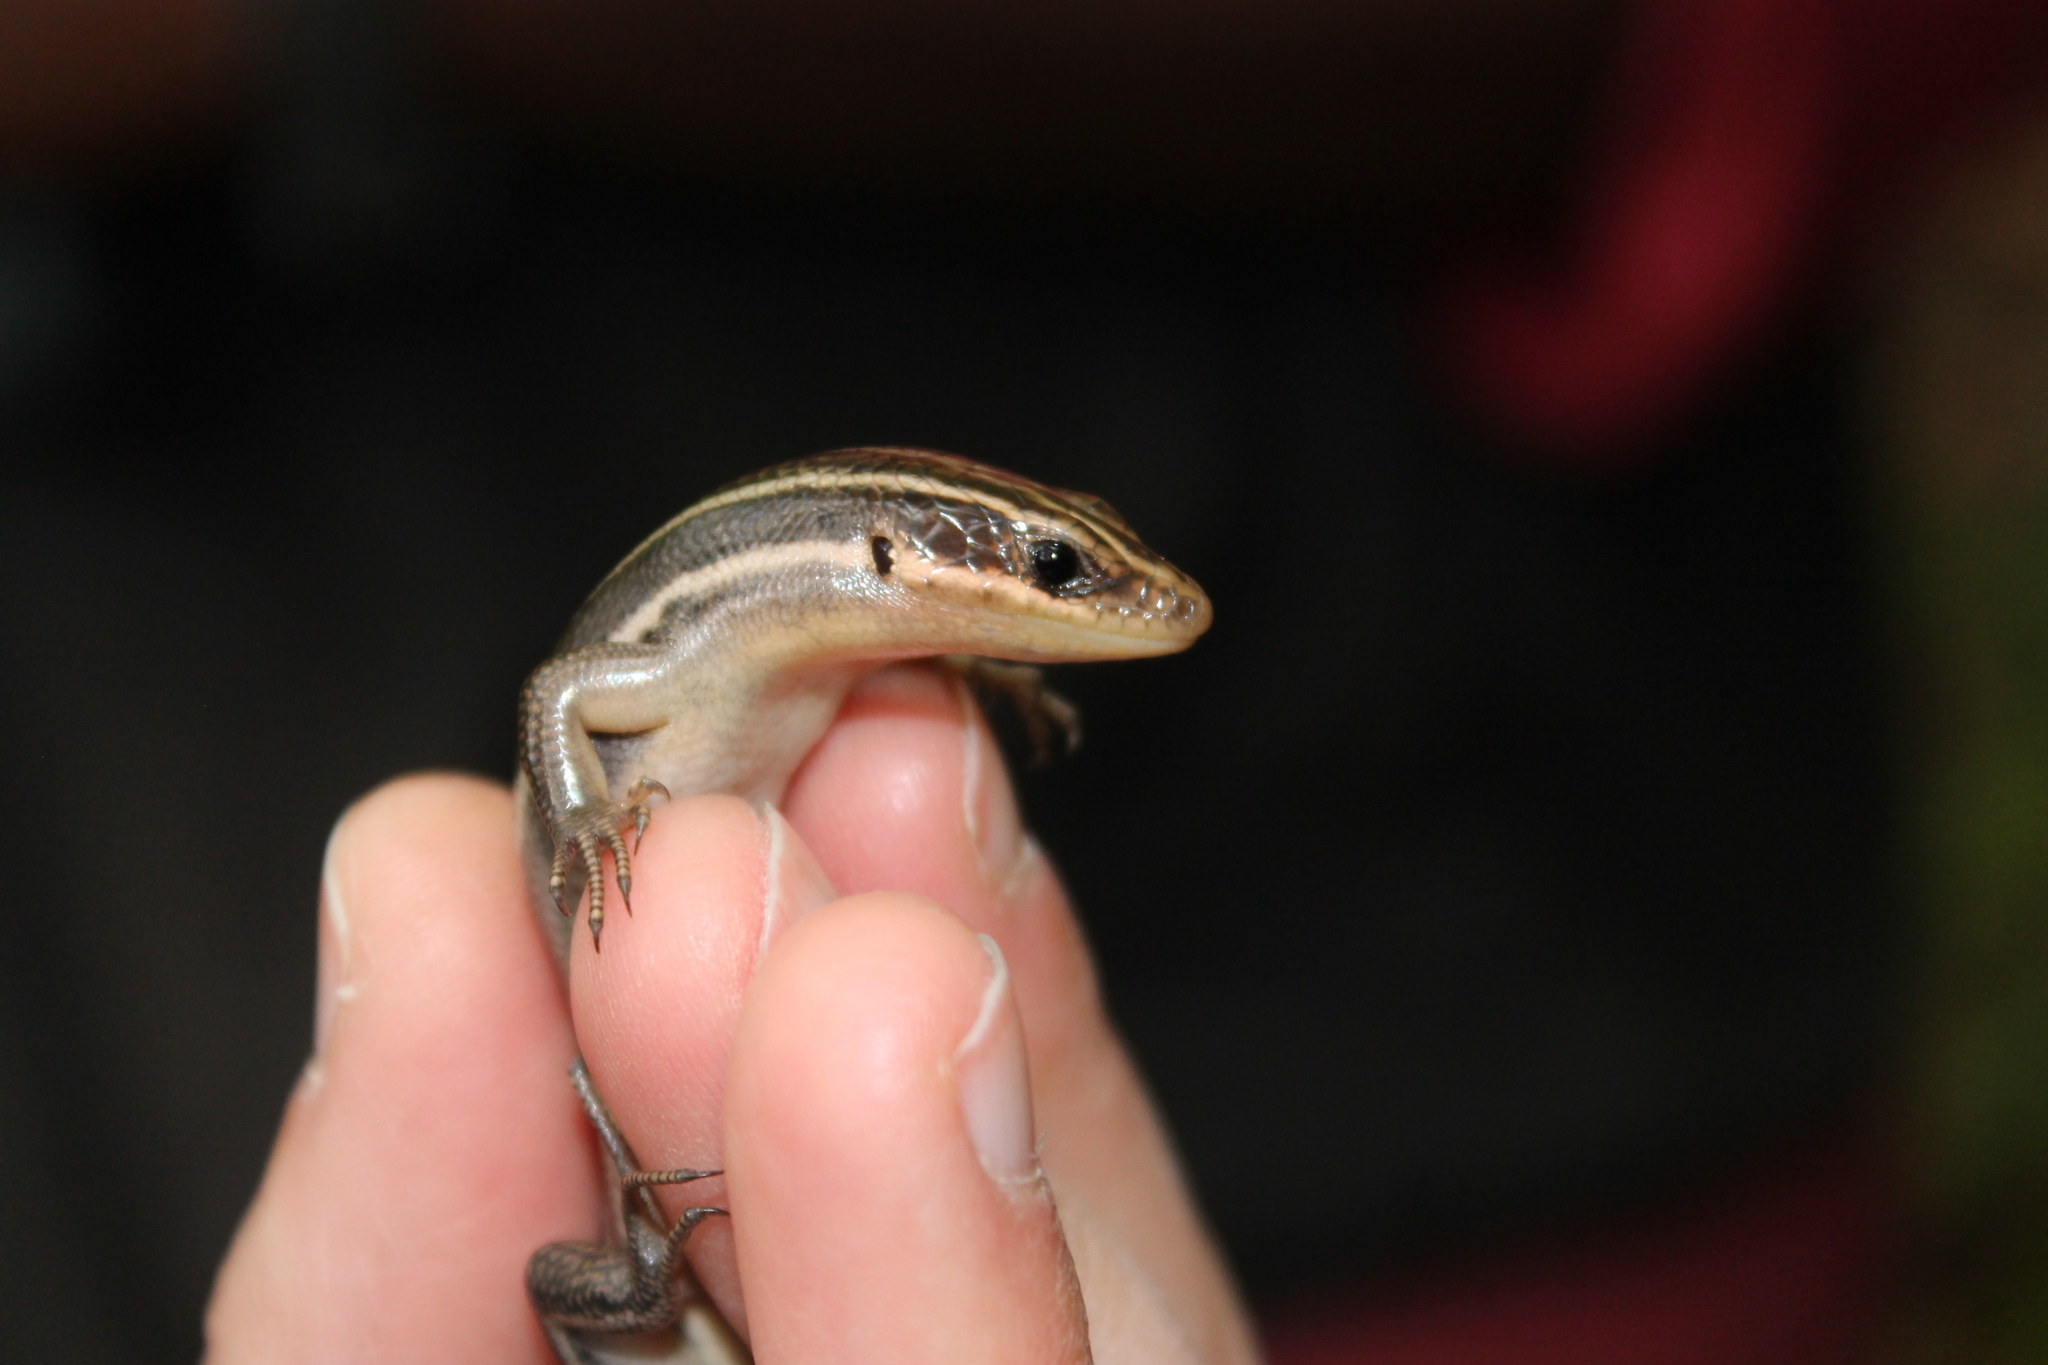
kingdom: Animalia
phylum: Chordata
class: Squamata
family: Scincidae
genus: Plestiodon
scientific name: Plestiodon fasciatus
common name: Five-lined skink
